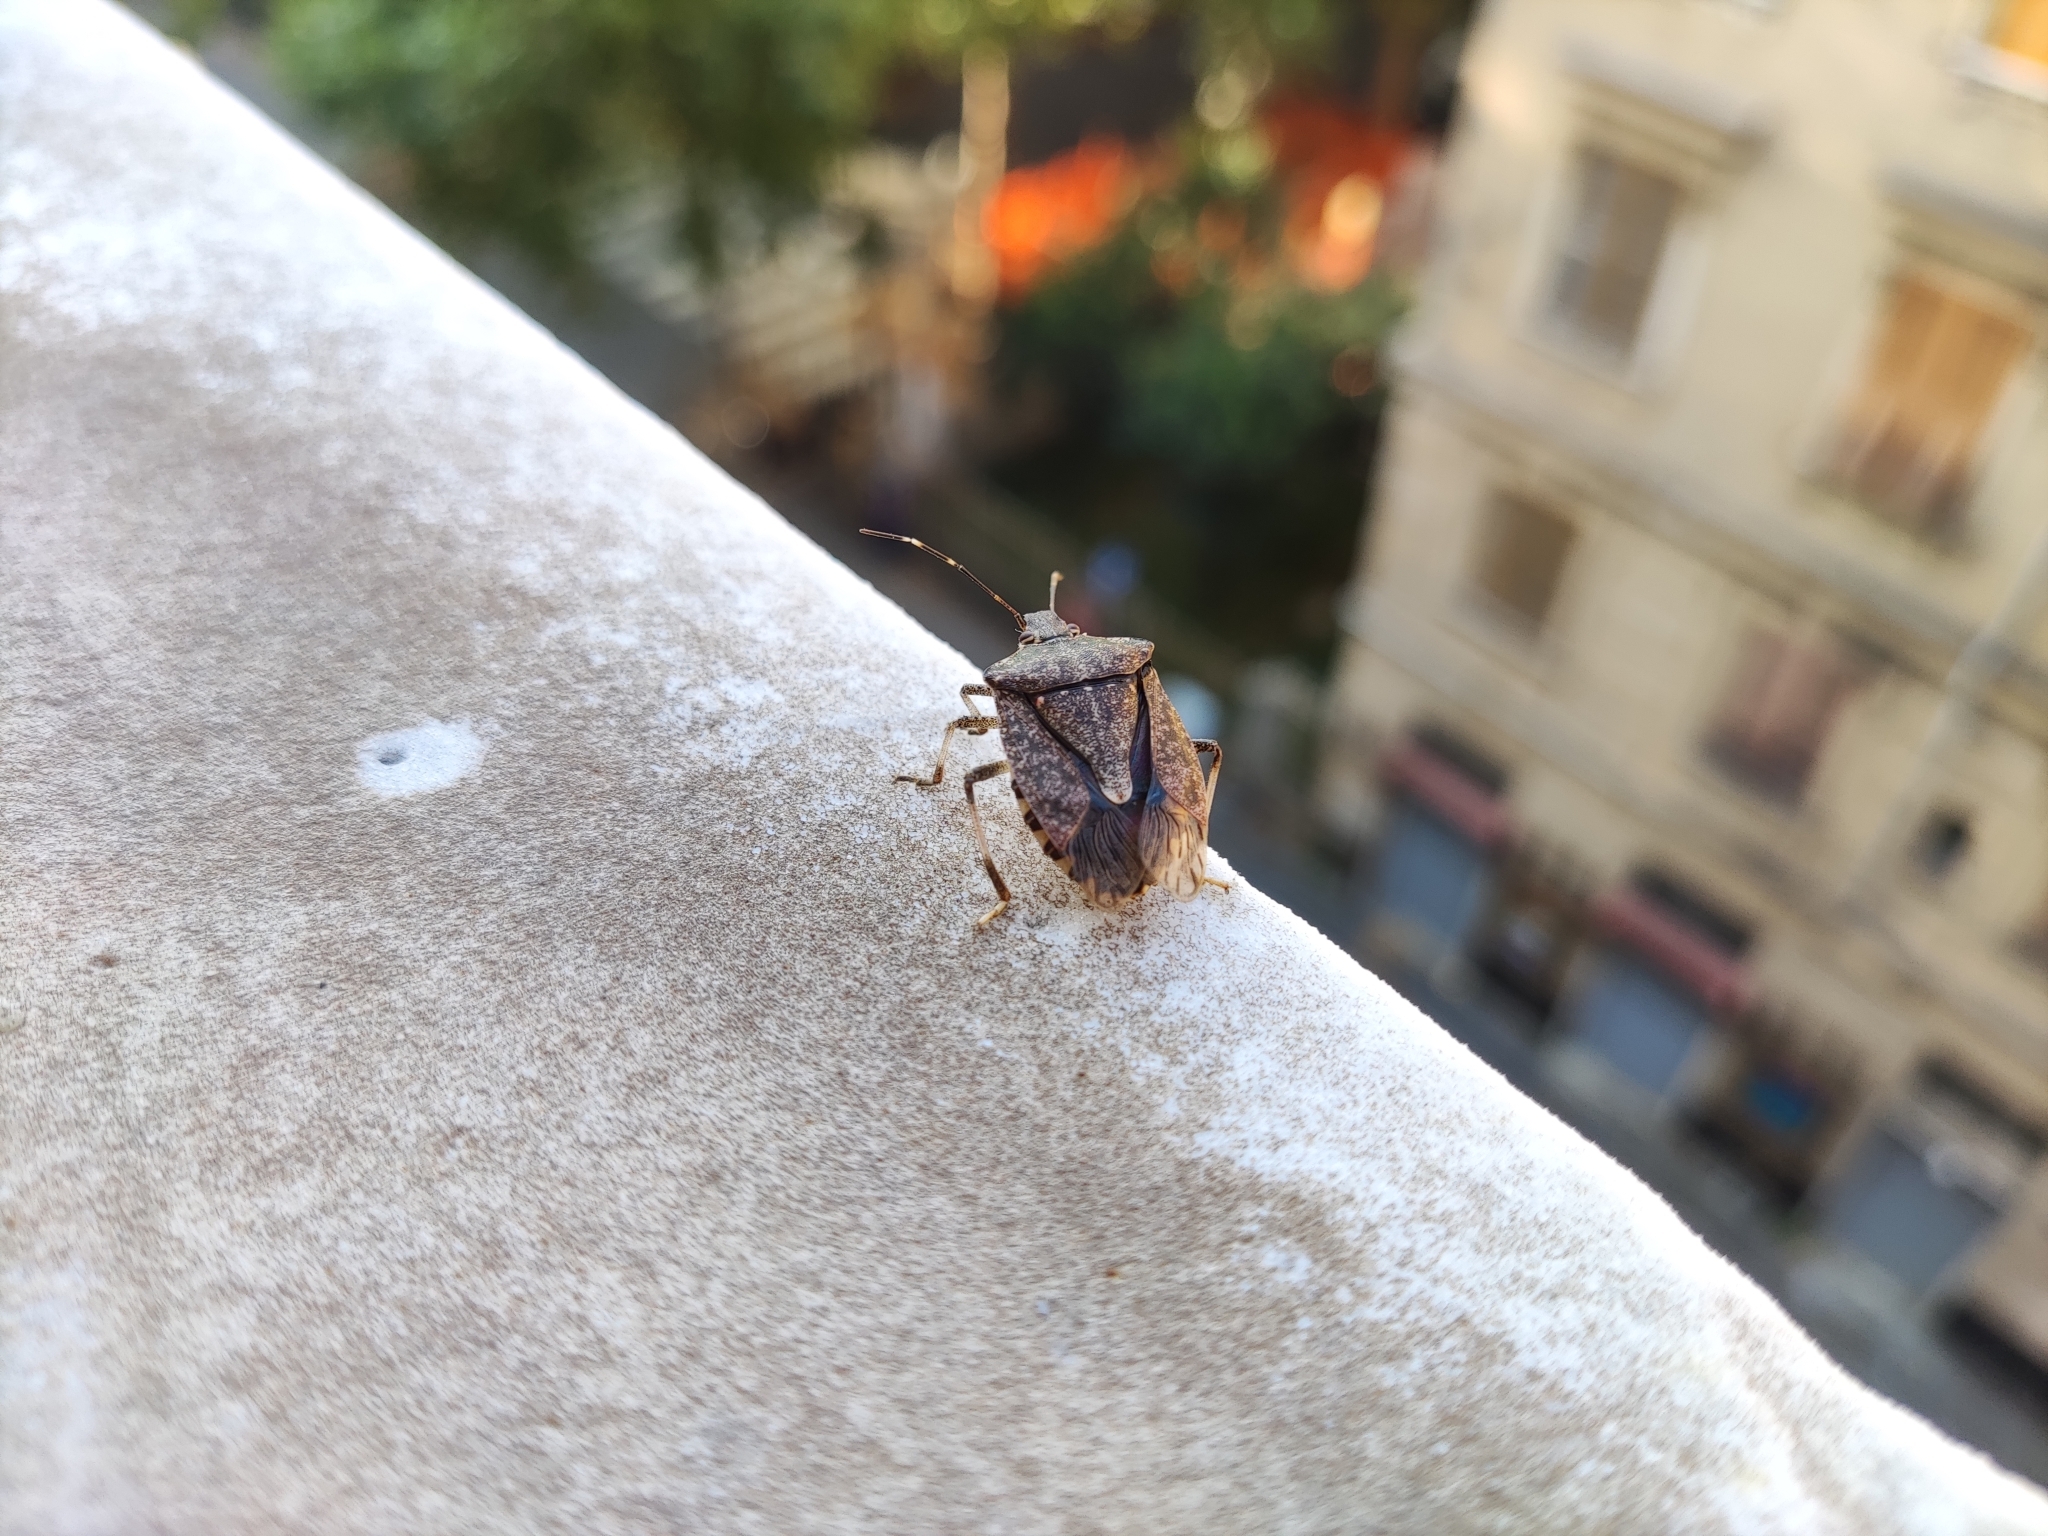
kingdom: Animalia
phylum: Arthropoda
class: Insecta
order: Hemiptera
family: Pentatomidae
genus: Halyomorpha
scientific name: Halyomorpha halys
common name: Brown marmorated stink bug
